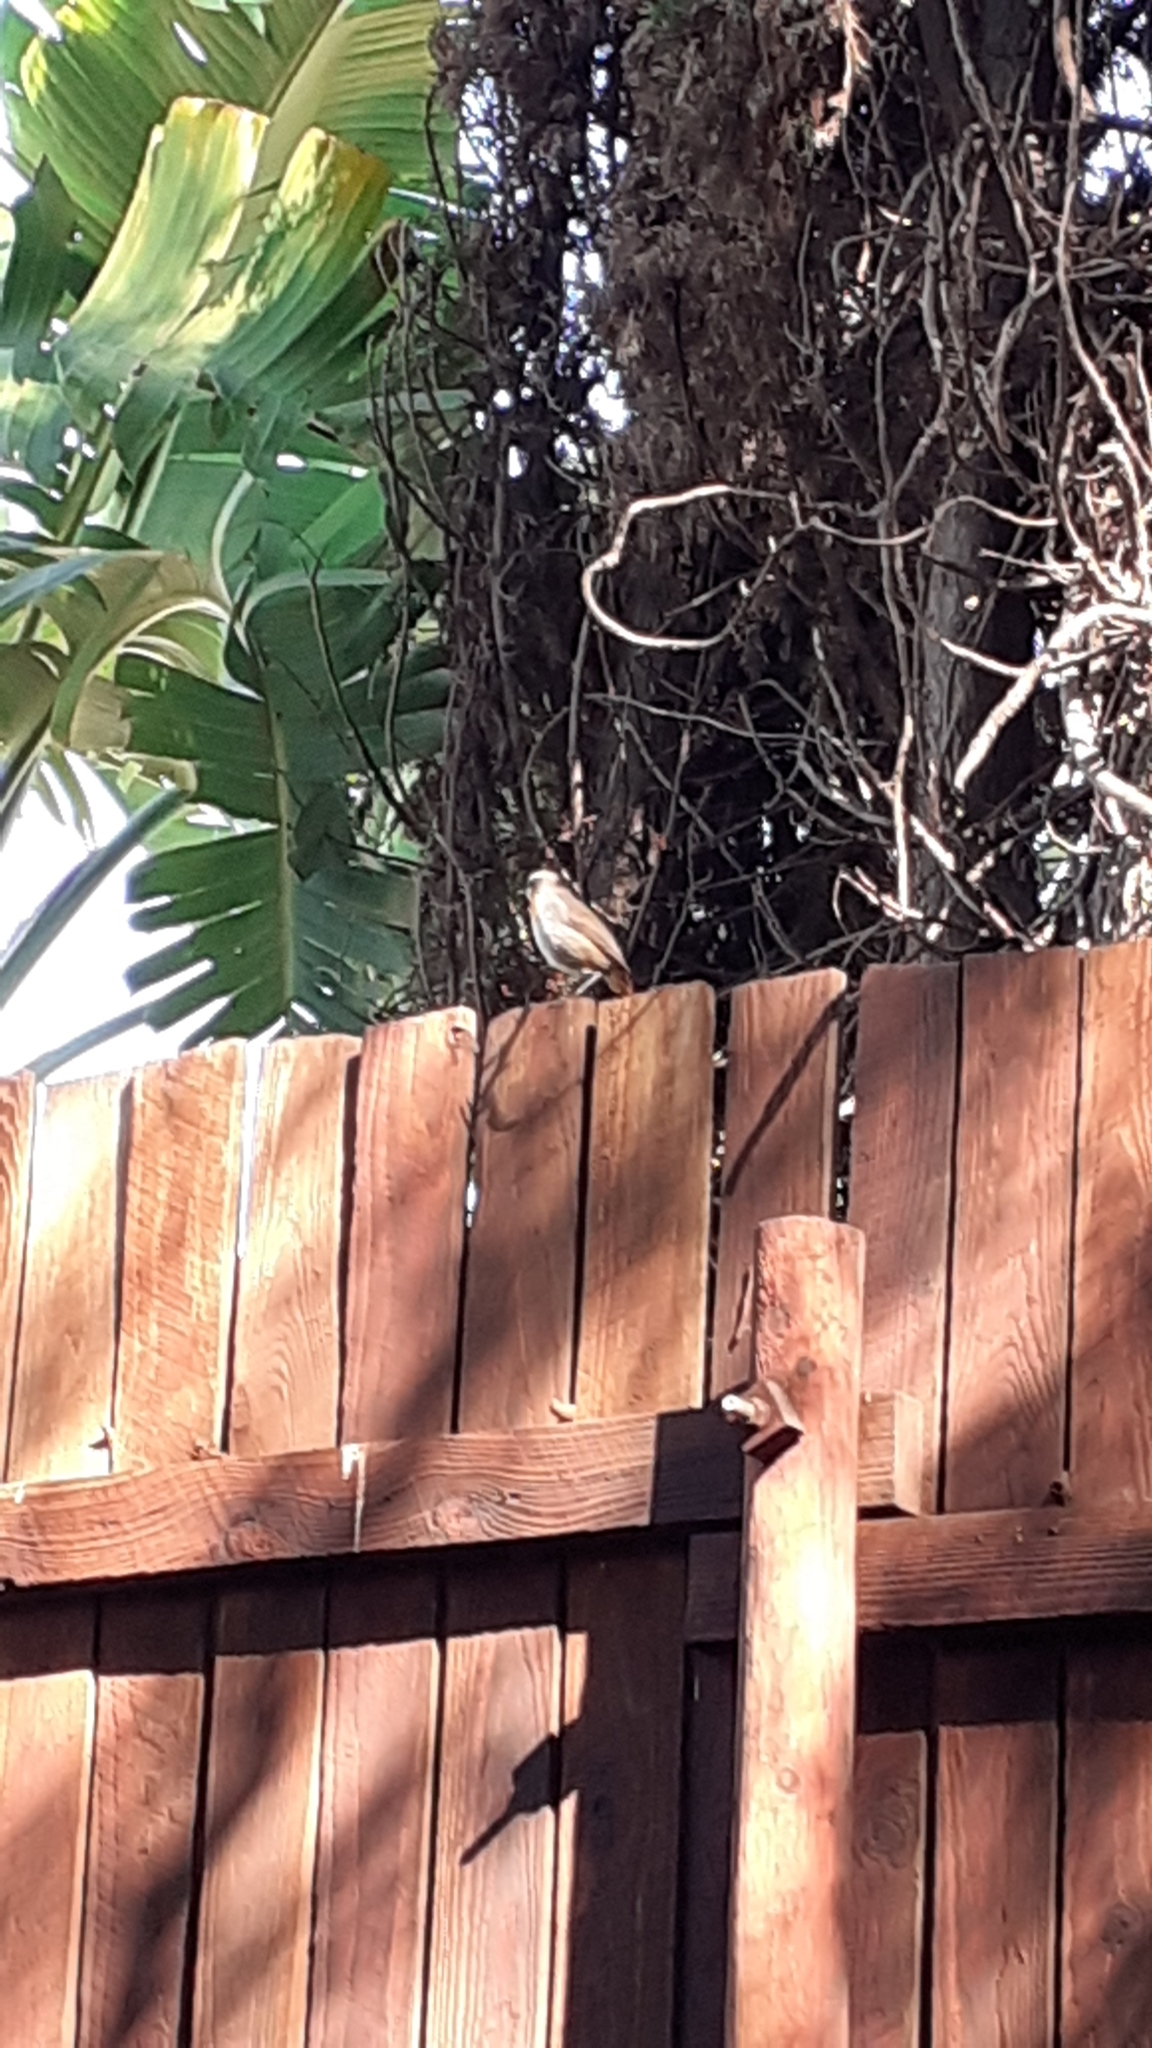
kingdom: Animalia
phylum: Chordata
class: Aves
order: Passeriformes
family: Muscicapidae
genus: Cossypha
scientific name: Cossypha caffra
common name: Cape robin-chat
